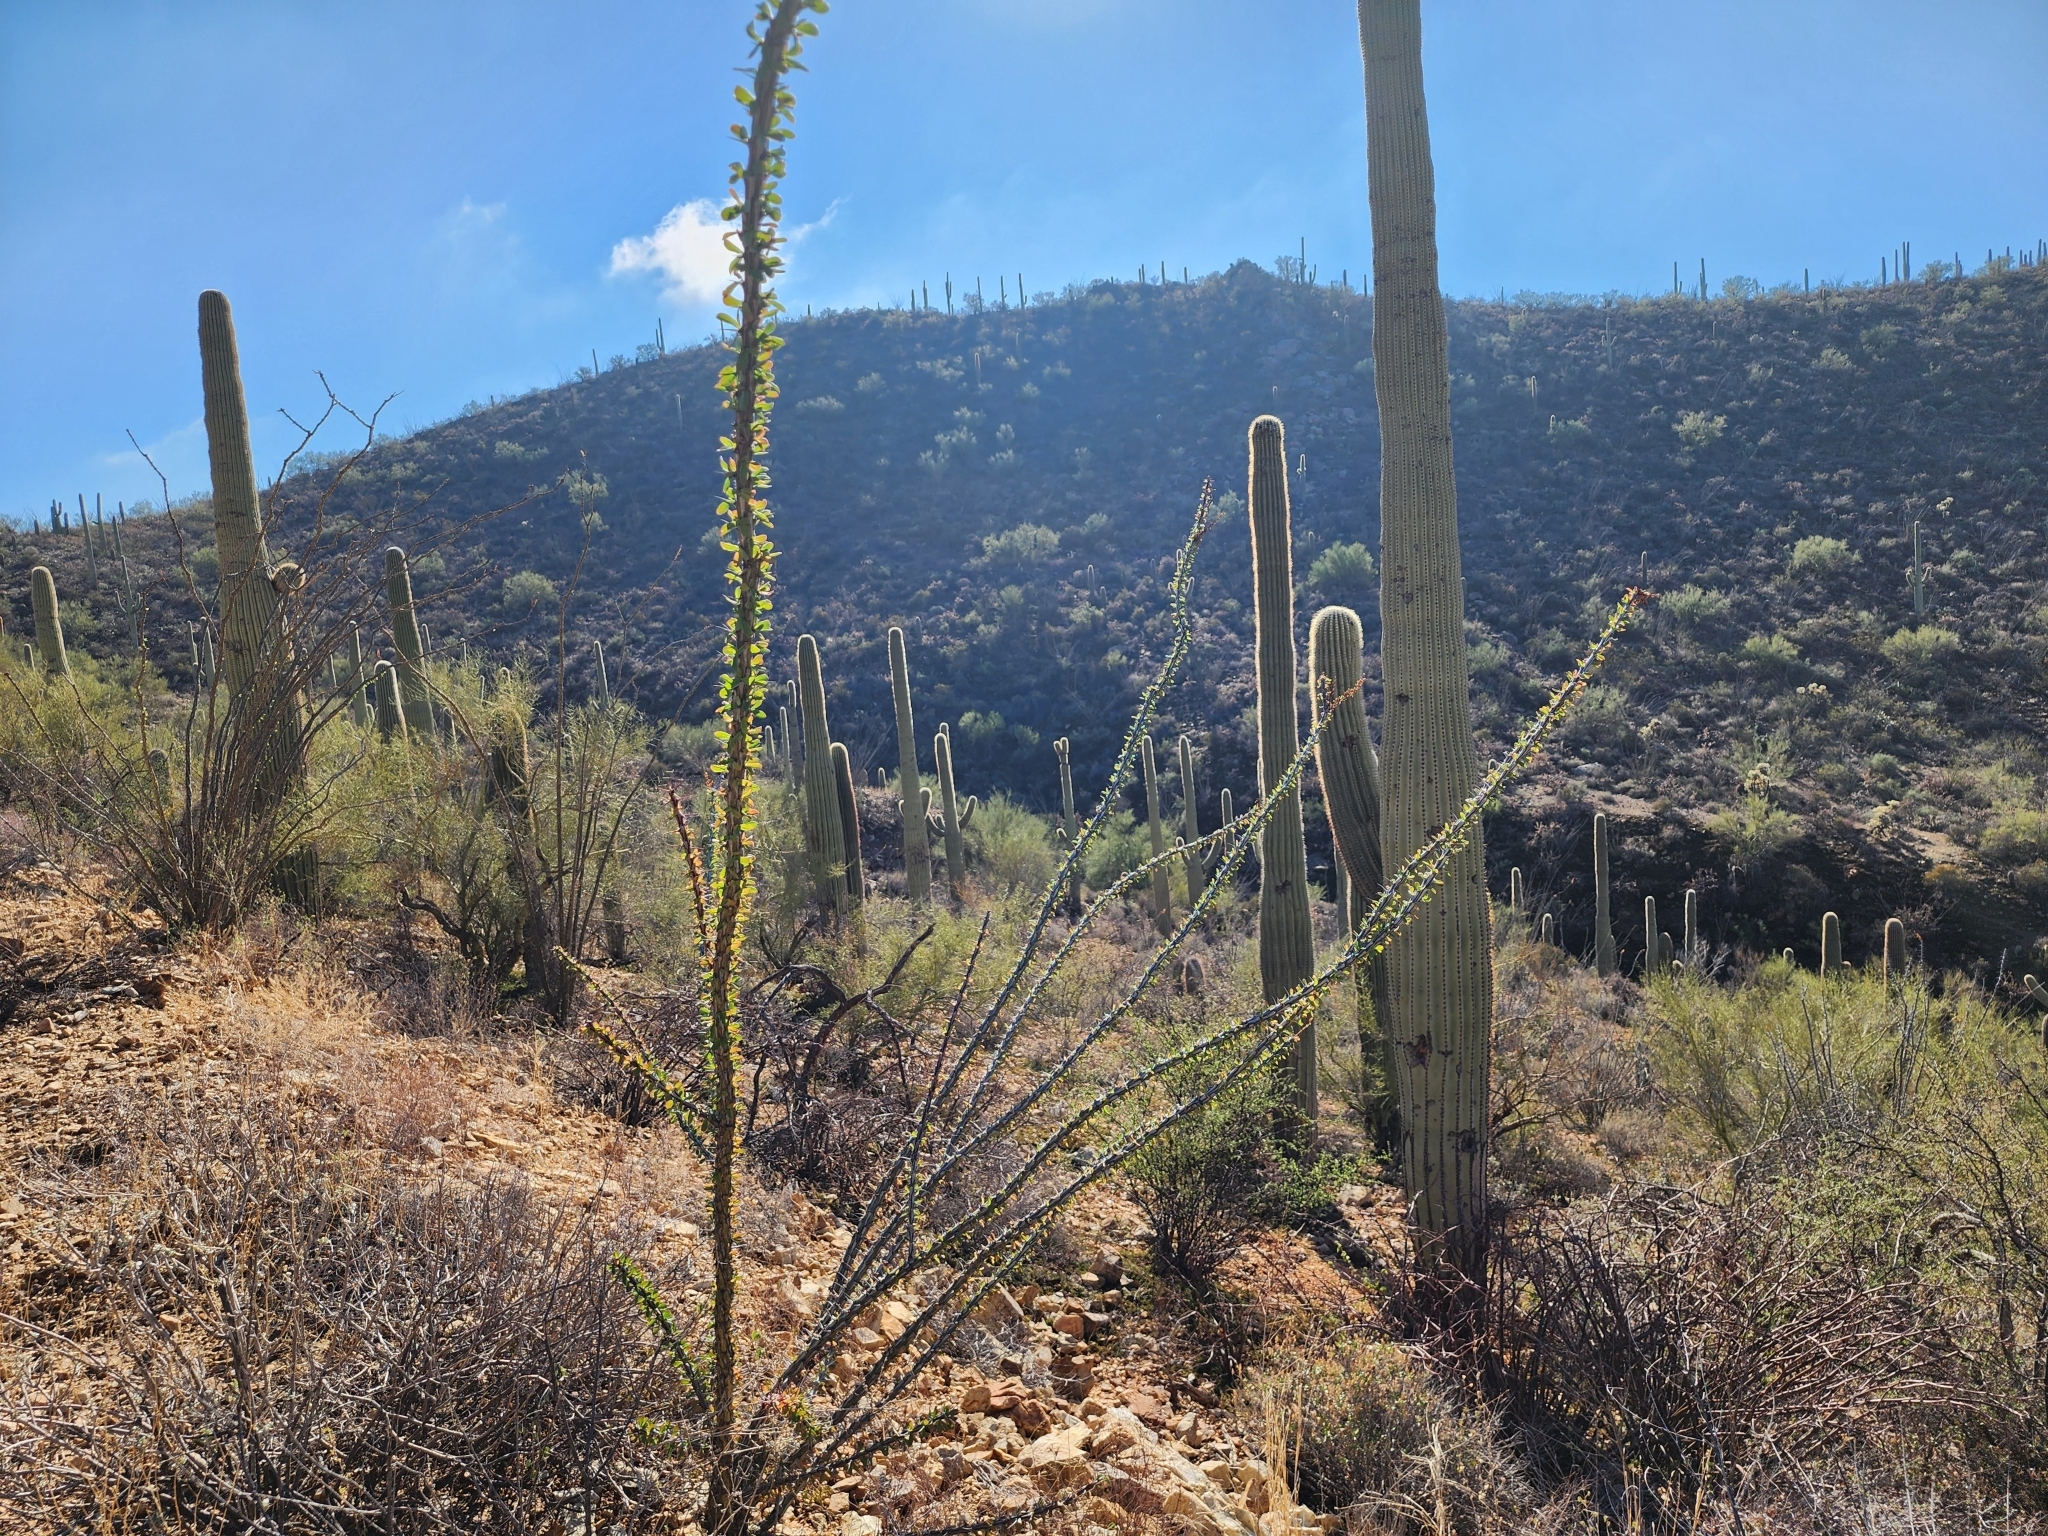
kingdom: Plantae
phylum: Tracheophyta
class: Magnoliopsida
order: Ericales
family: Fouquieriaceae
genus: Fouquieria
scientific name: Fouquieria splendens
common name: Vine-cactus
